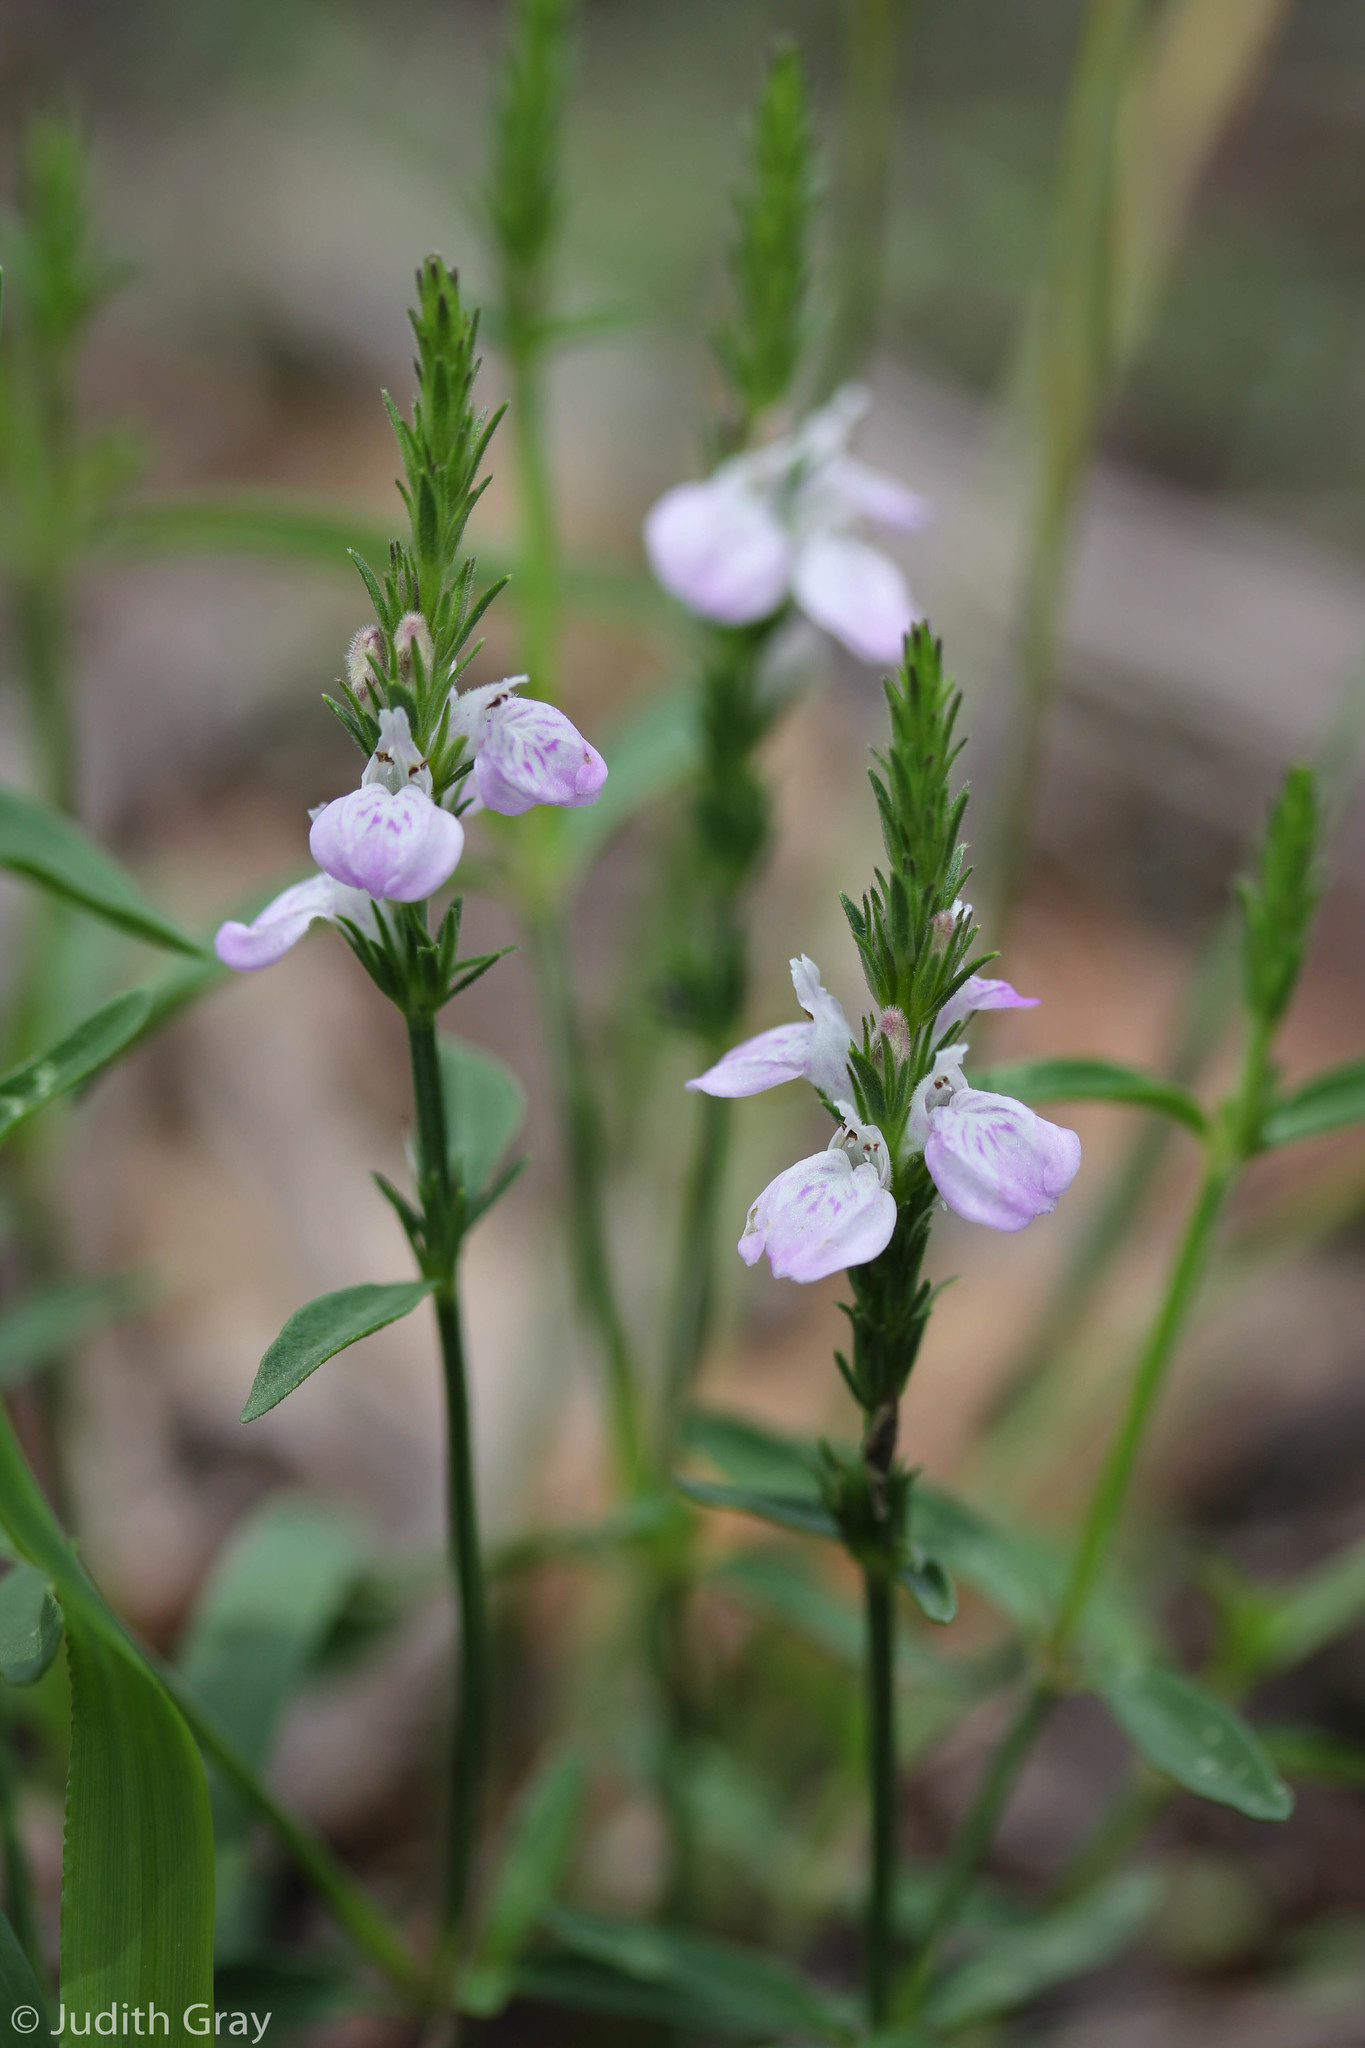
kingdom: Plantae
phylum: Tracheophyta
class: Magnoliopsida
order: Lamiales
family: Acanthaceae
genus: Rostellularia
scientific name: Rostellularia adscendens
